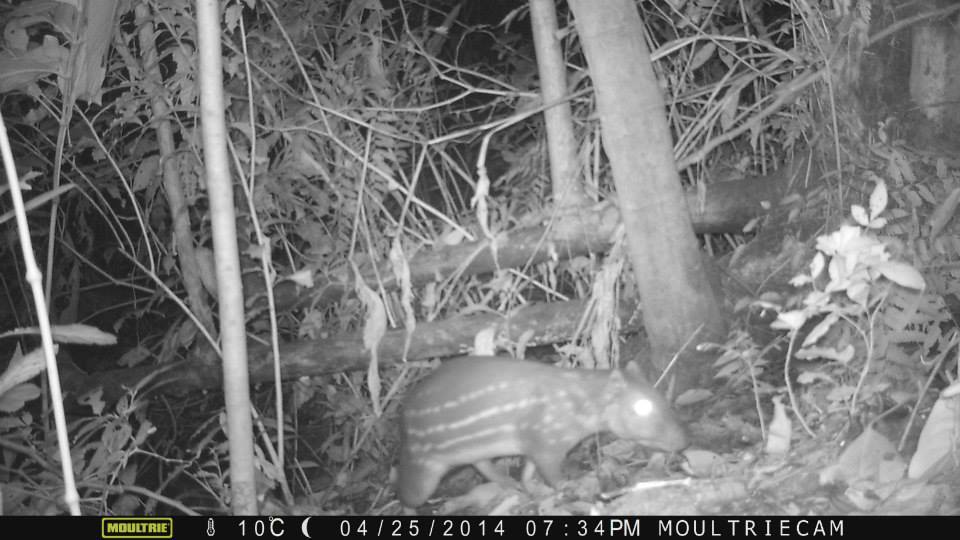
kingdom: Animalia
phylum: Chordata
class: Mammalia
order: Rodentia
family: Cuniculidae
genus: Cuniculus
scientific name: Cuniculus paca
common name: Lowland paca
